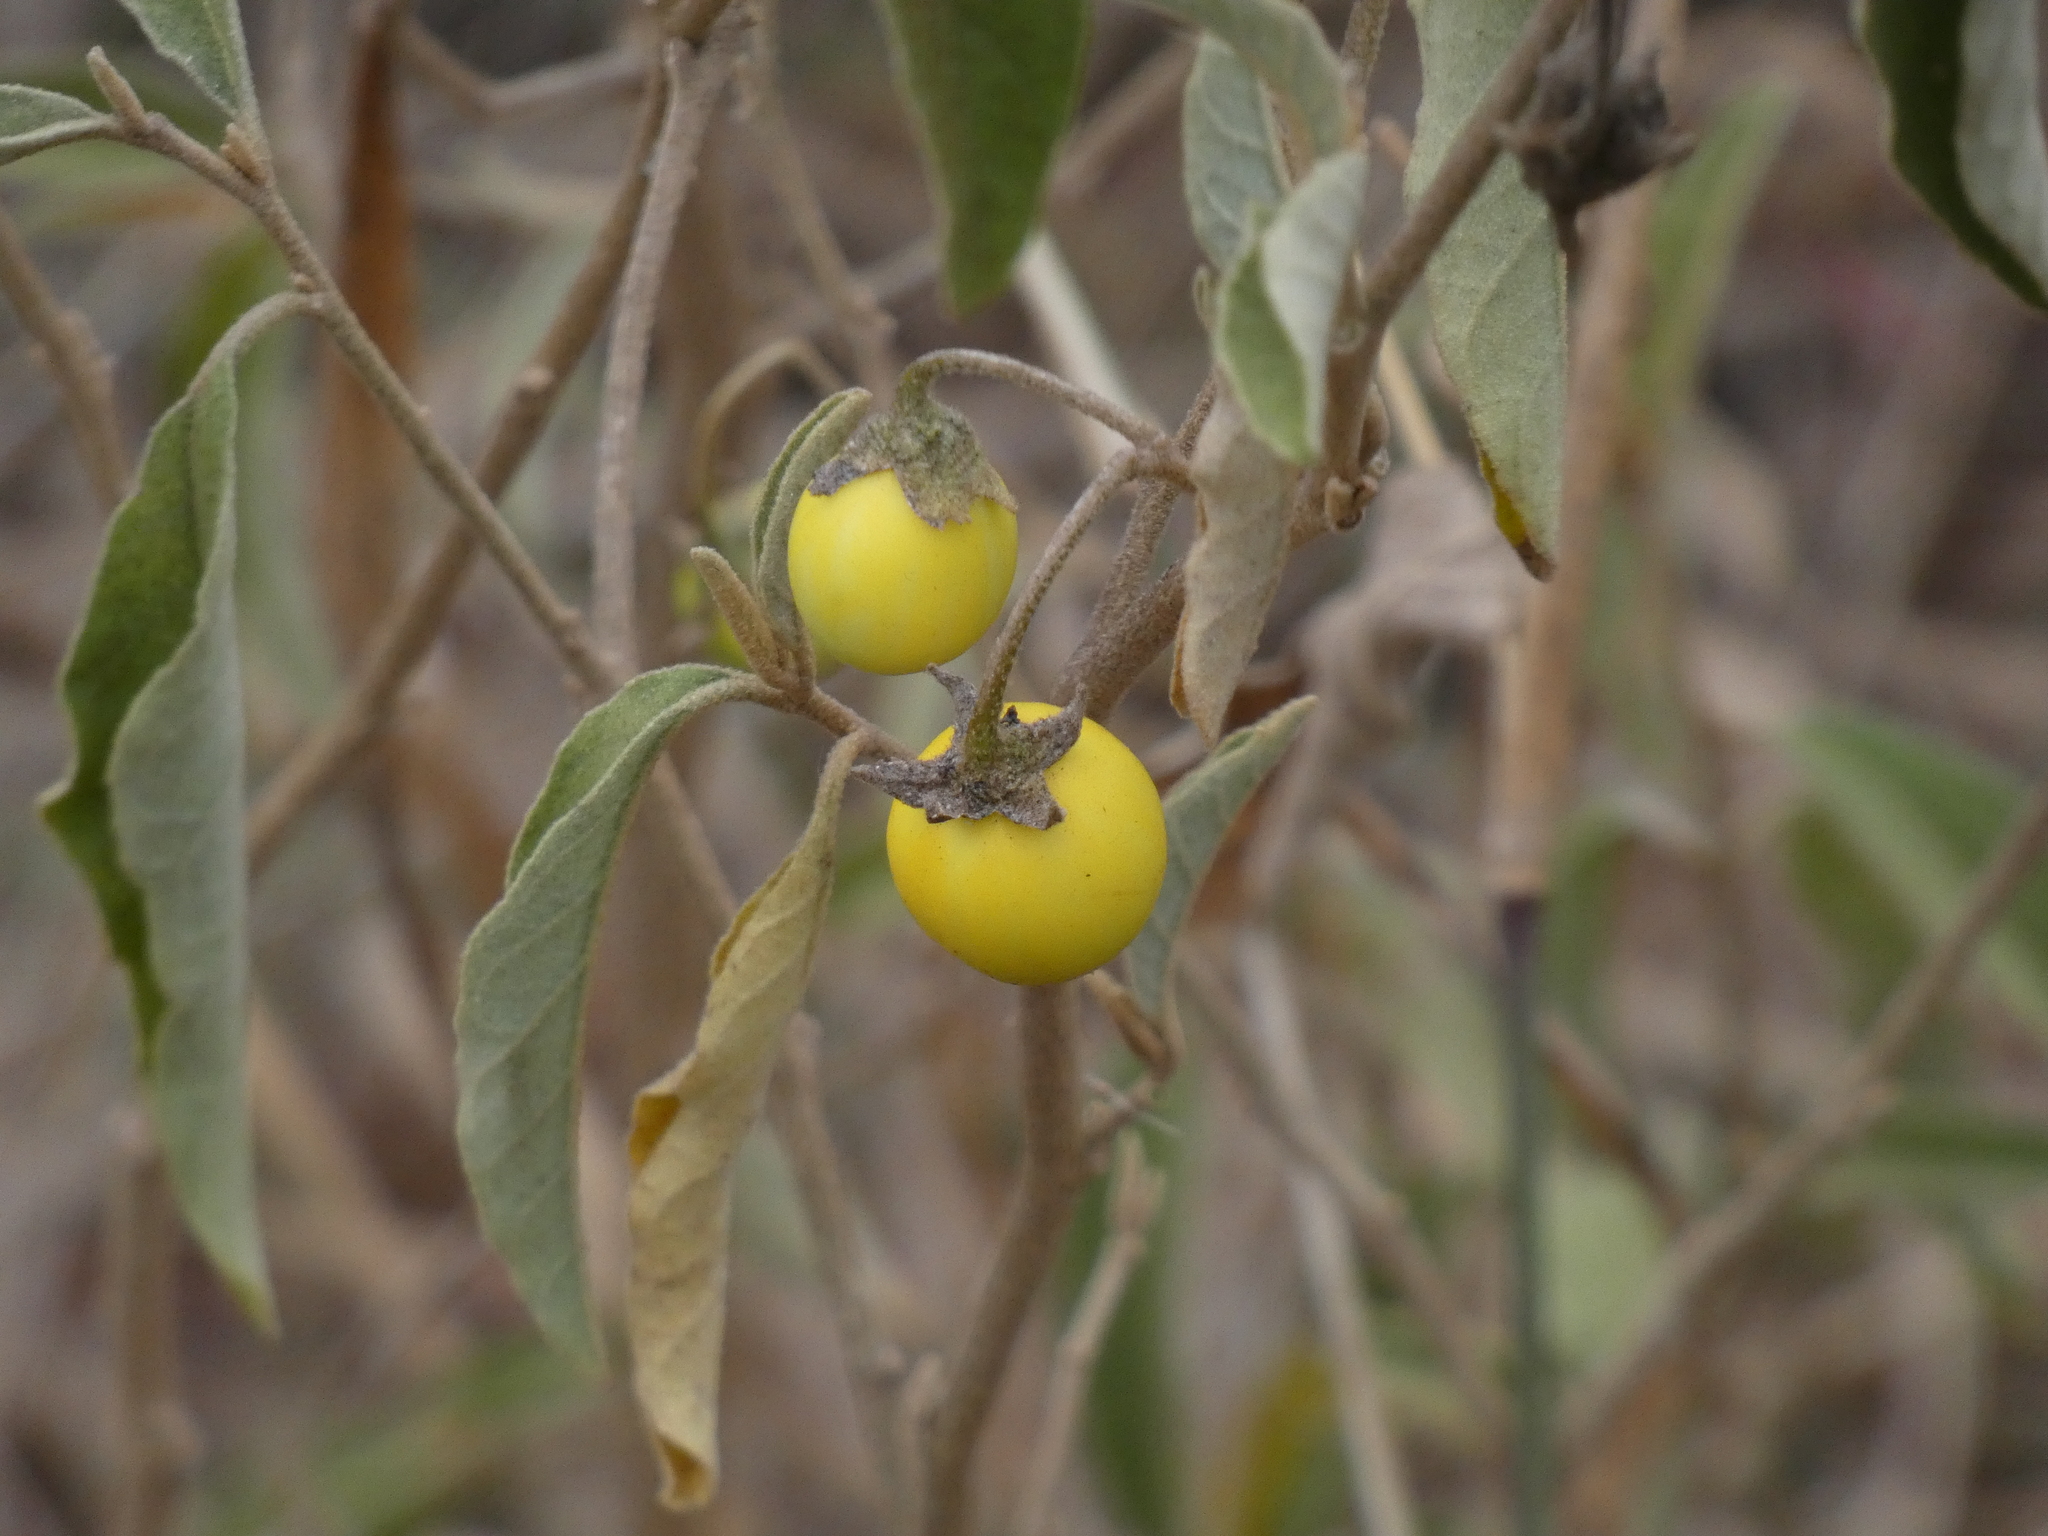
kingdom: Plantae
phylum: Tracheophyta
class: Magnoliopsida
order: Solanales
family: Solanaceae
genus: Solanum
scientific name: Solanum campylacanthum
